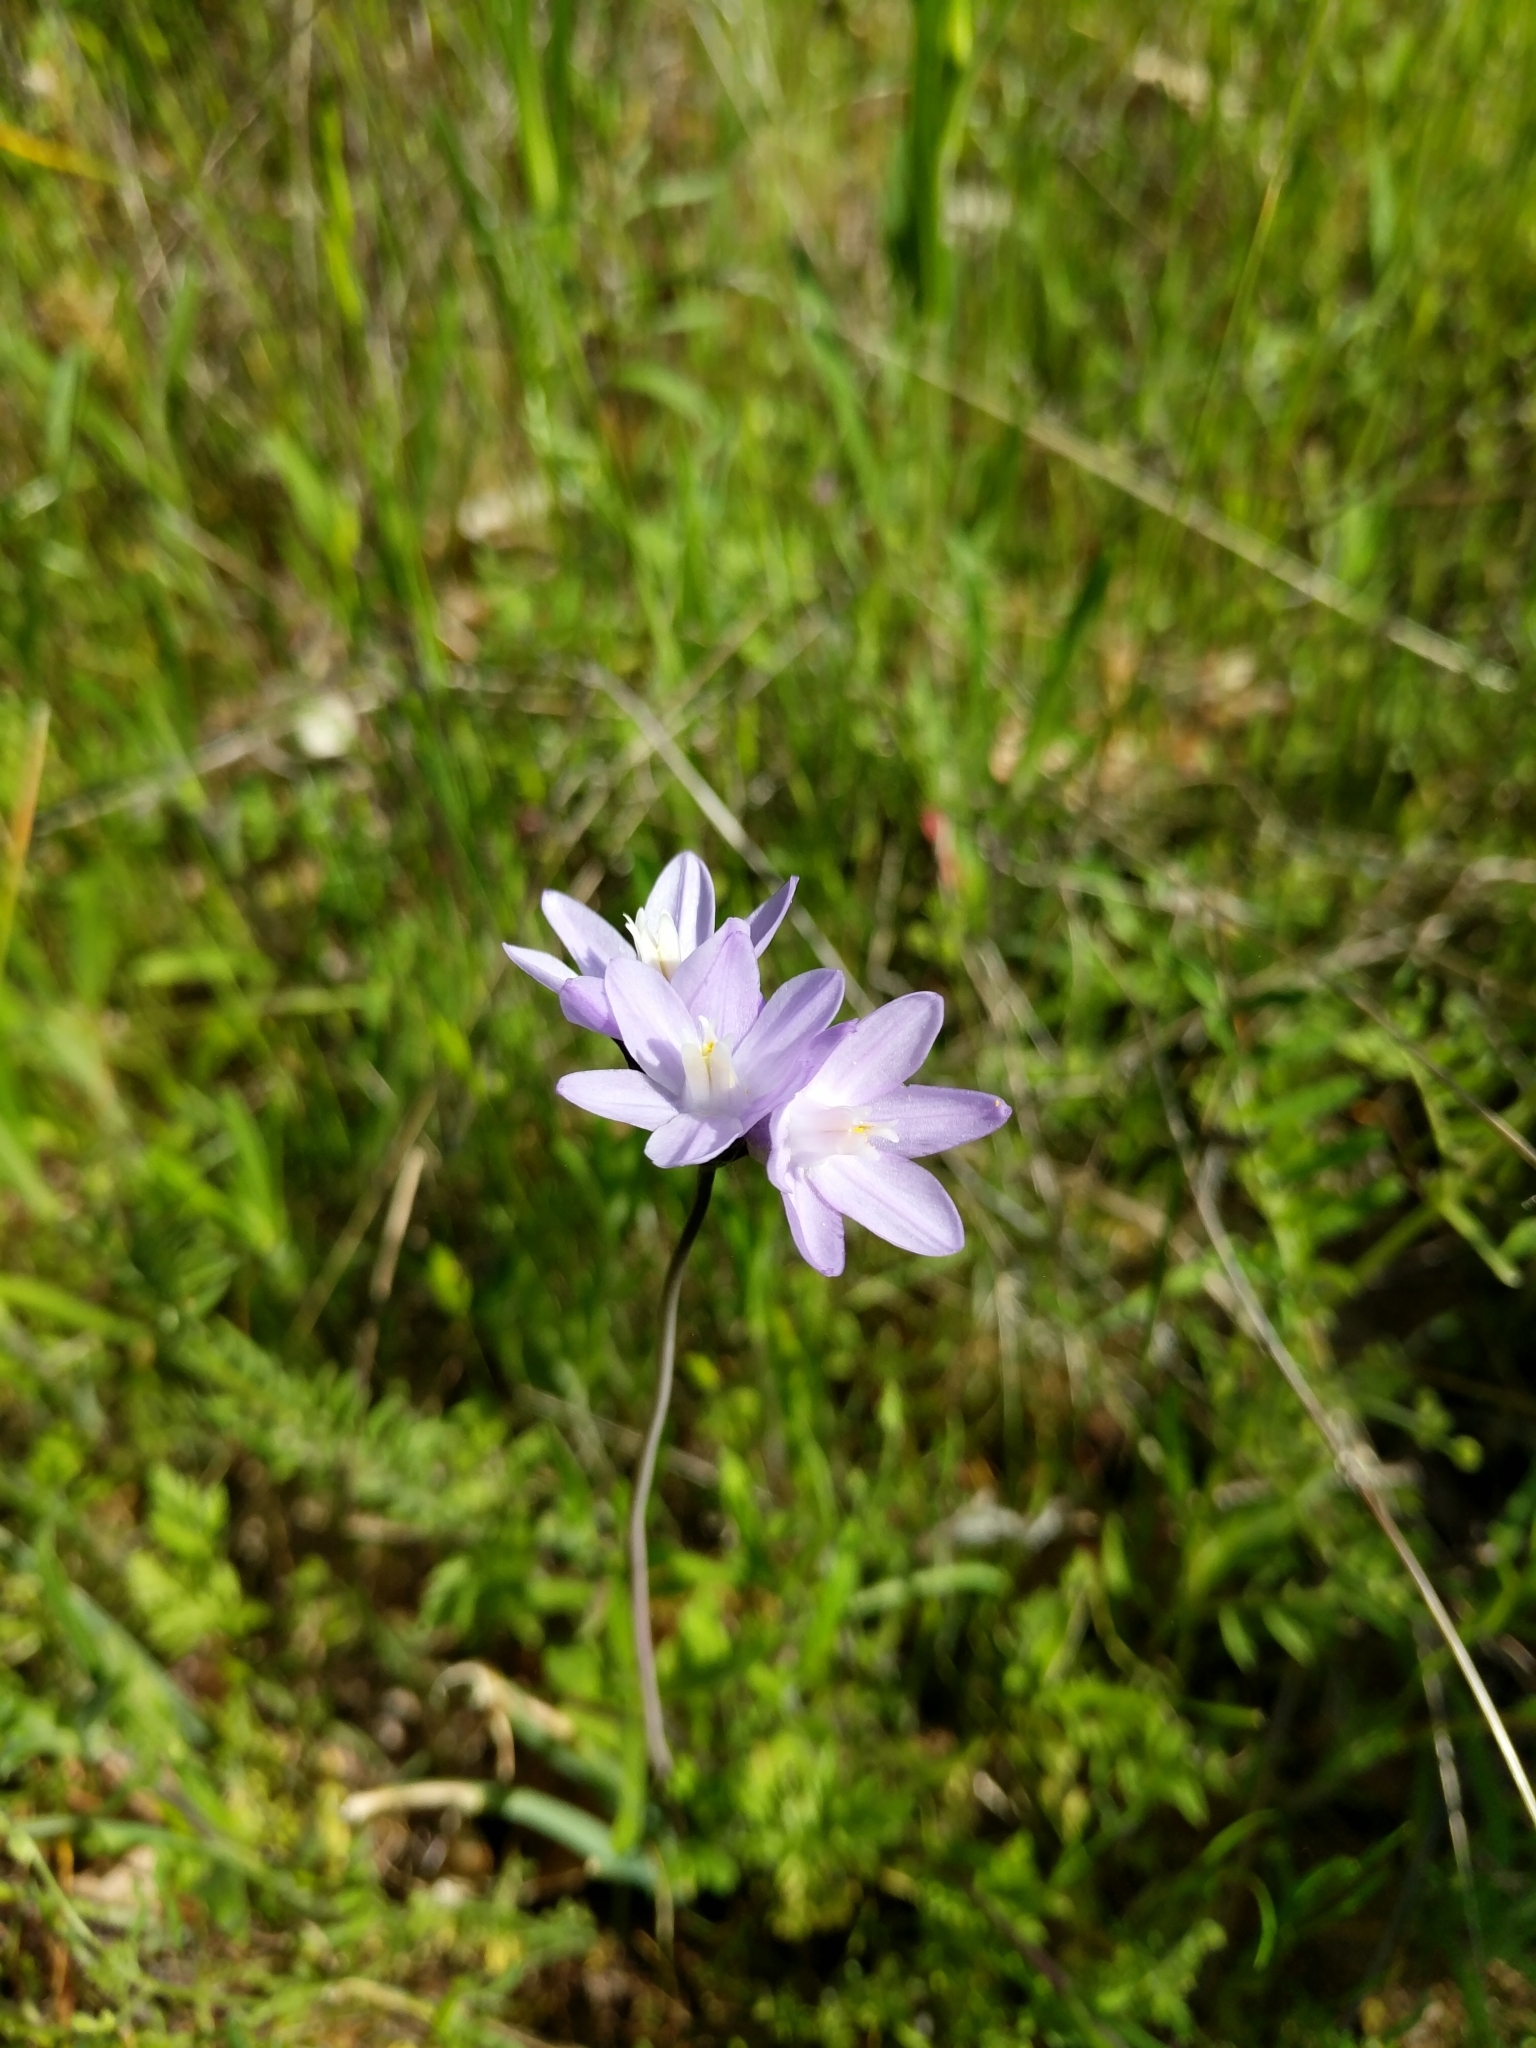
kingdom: Plantae
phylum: Tracheophyta
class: Liliopsida
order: Asparagales
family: Asparagaceae
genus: Dipterostemon
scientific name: Dipterostemon capitatus
